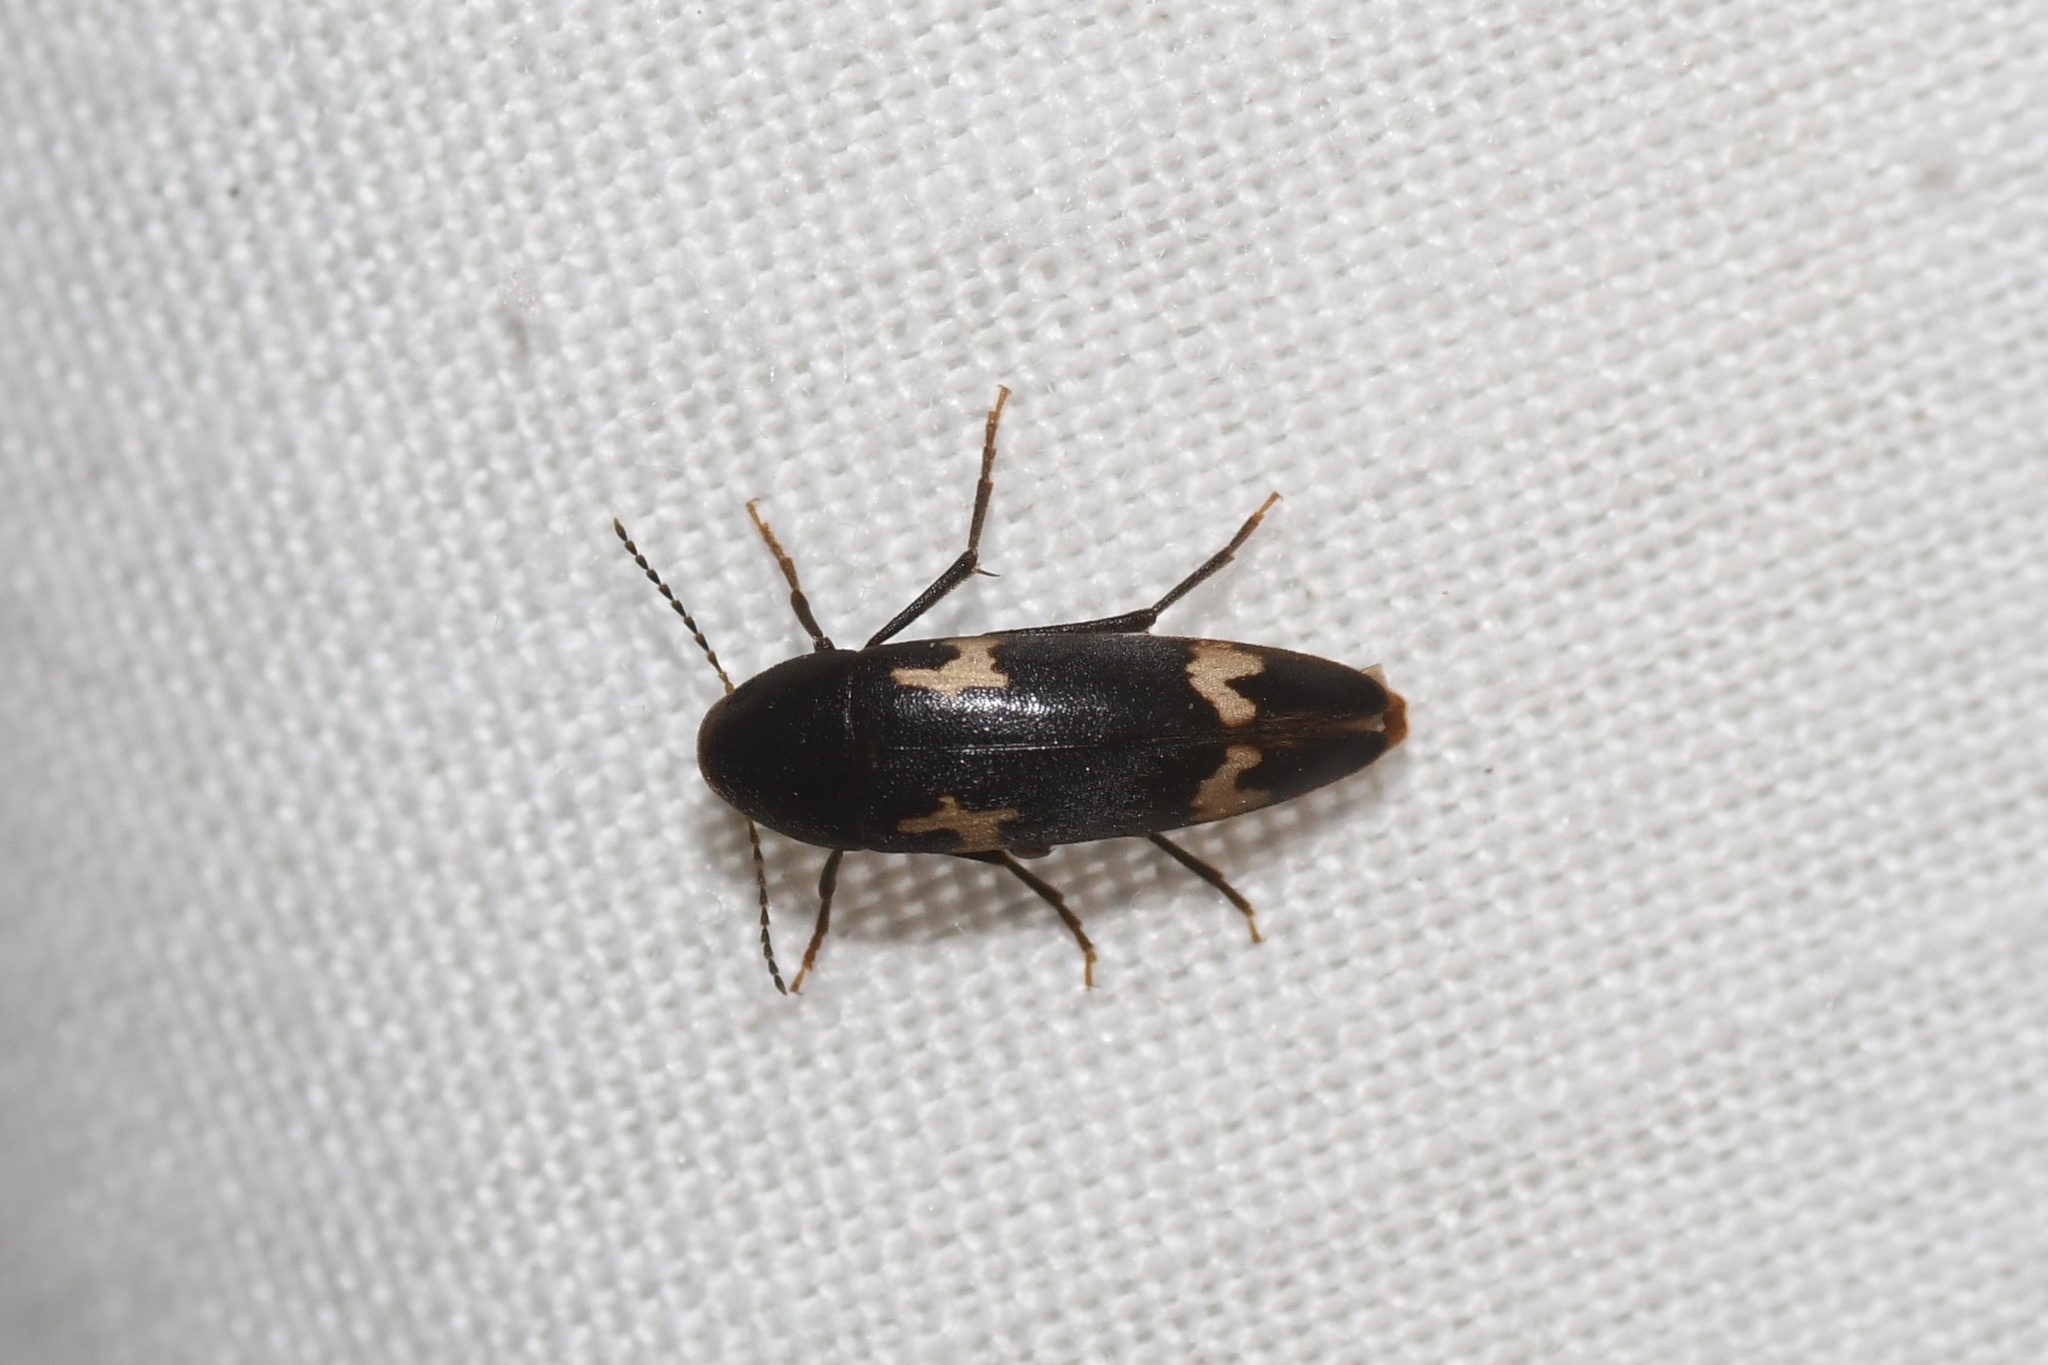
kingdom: Animalia
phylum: Arthropoda
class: Insecta
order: Coleoptera
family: Melandryidae
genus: Dircaea
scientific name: Dircaea liturata
